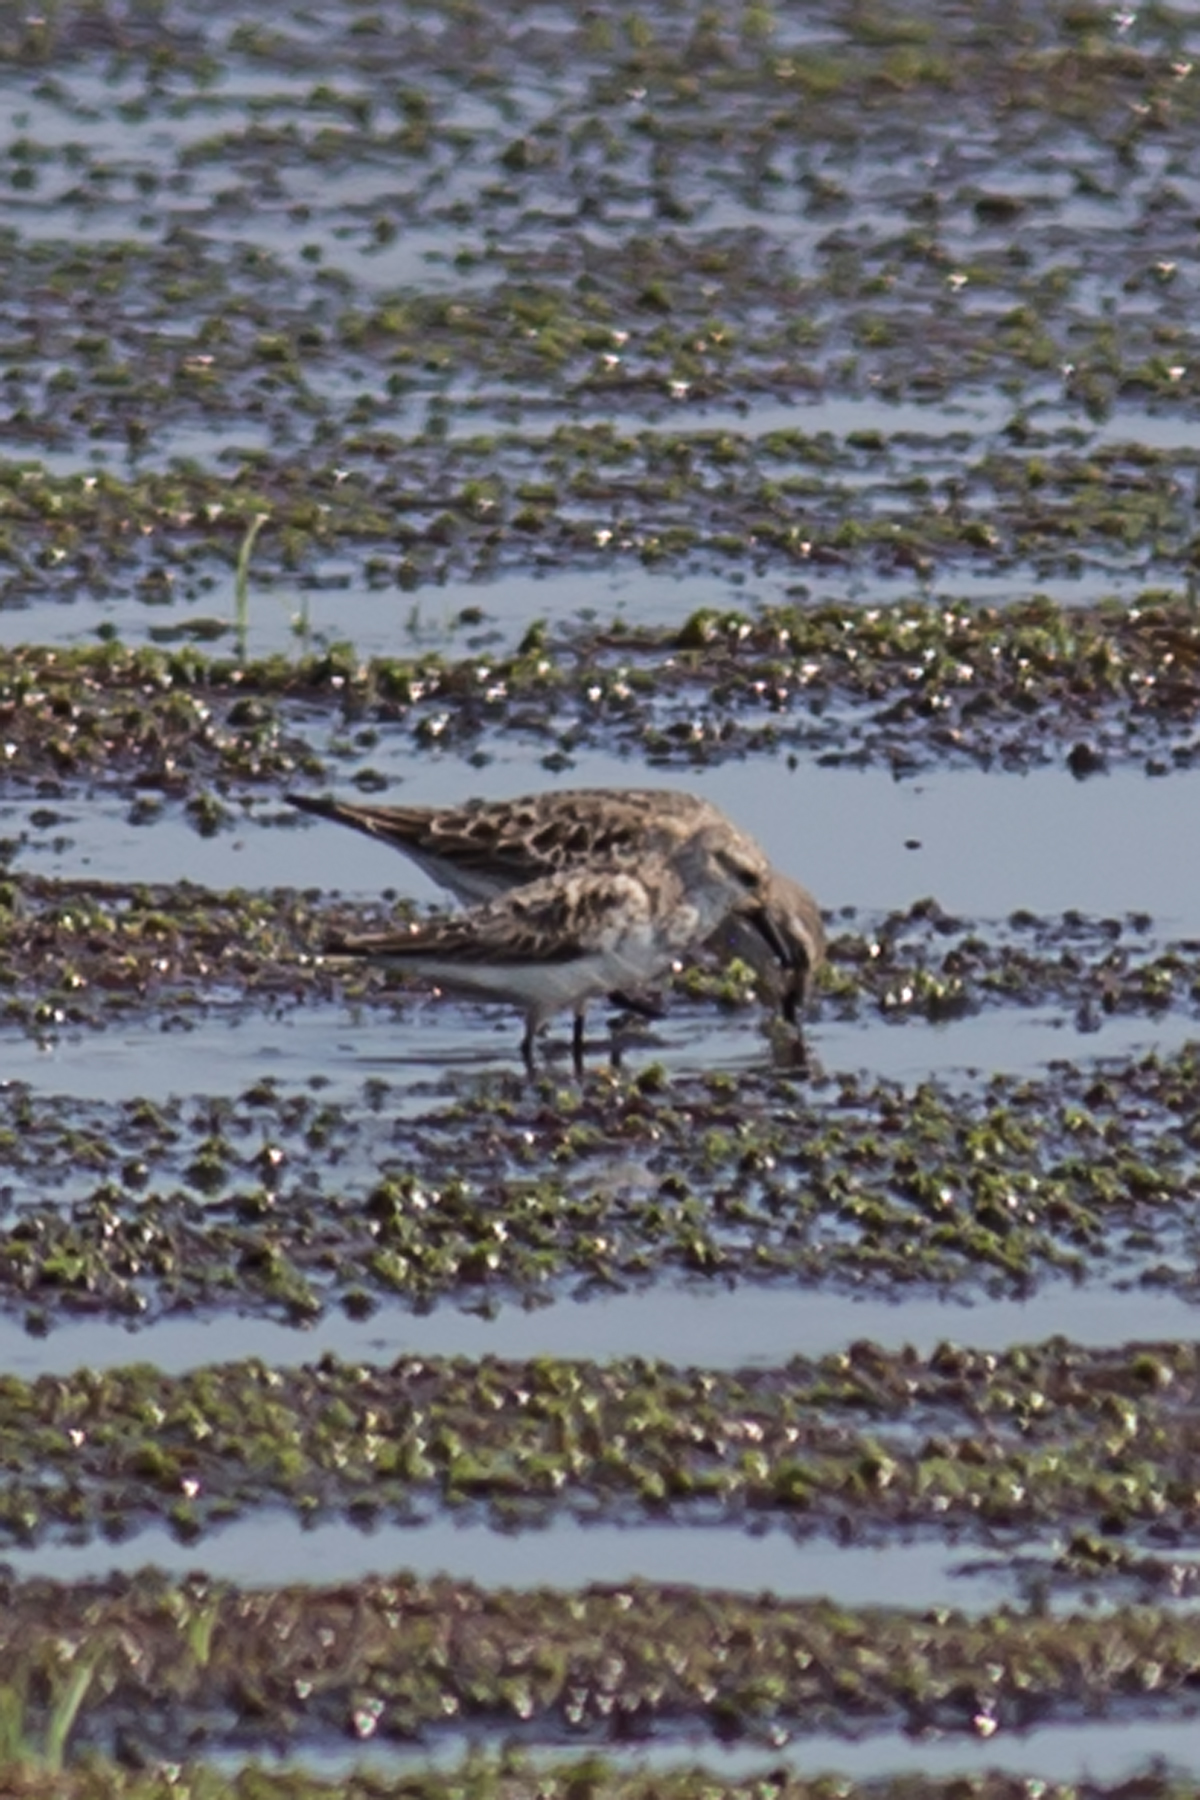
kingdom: Animalia
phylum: Chordata
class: Aves
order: Charadriiformes
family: Scolopacidae
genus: Calidris
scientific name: Calidris pusilla
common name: Semipalmated sandpiper
